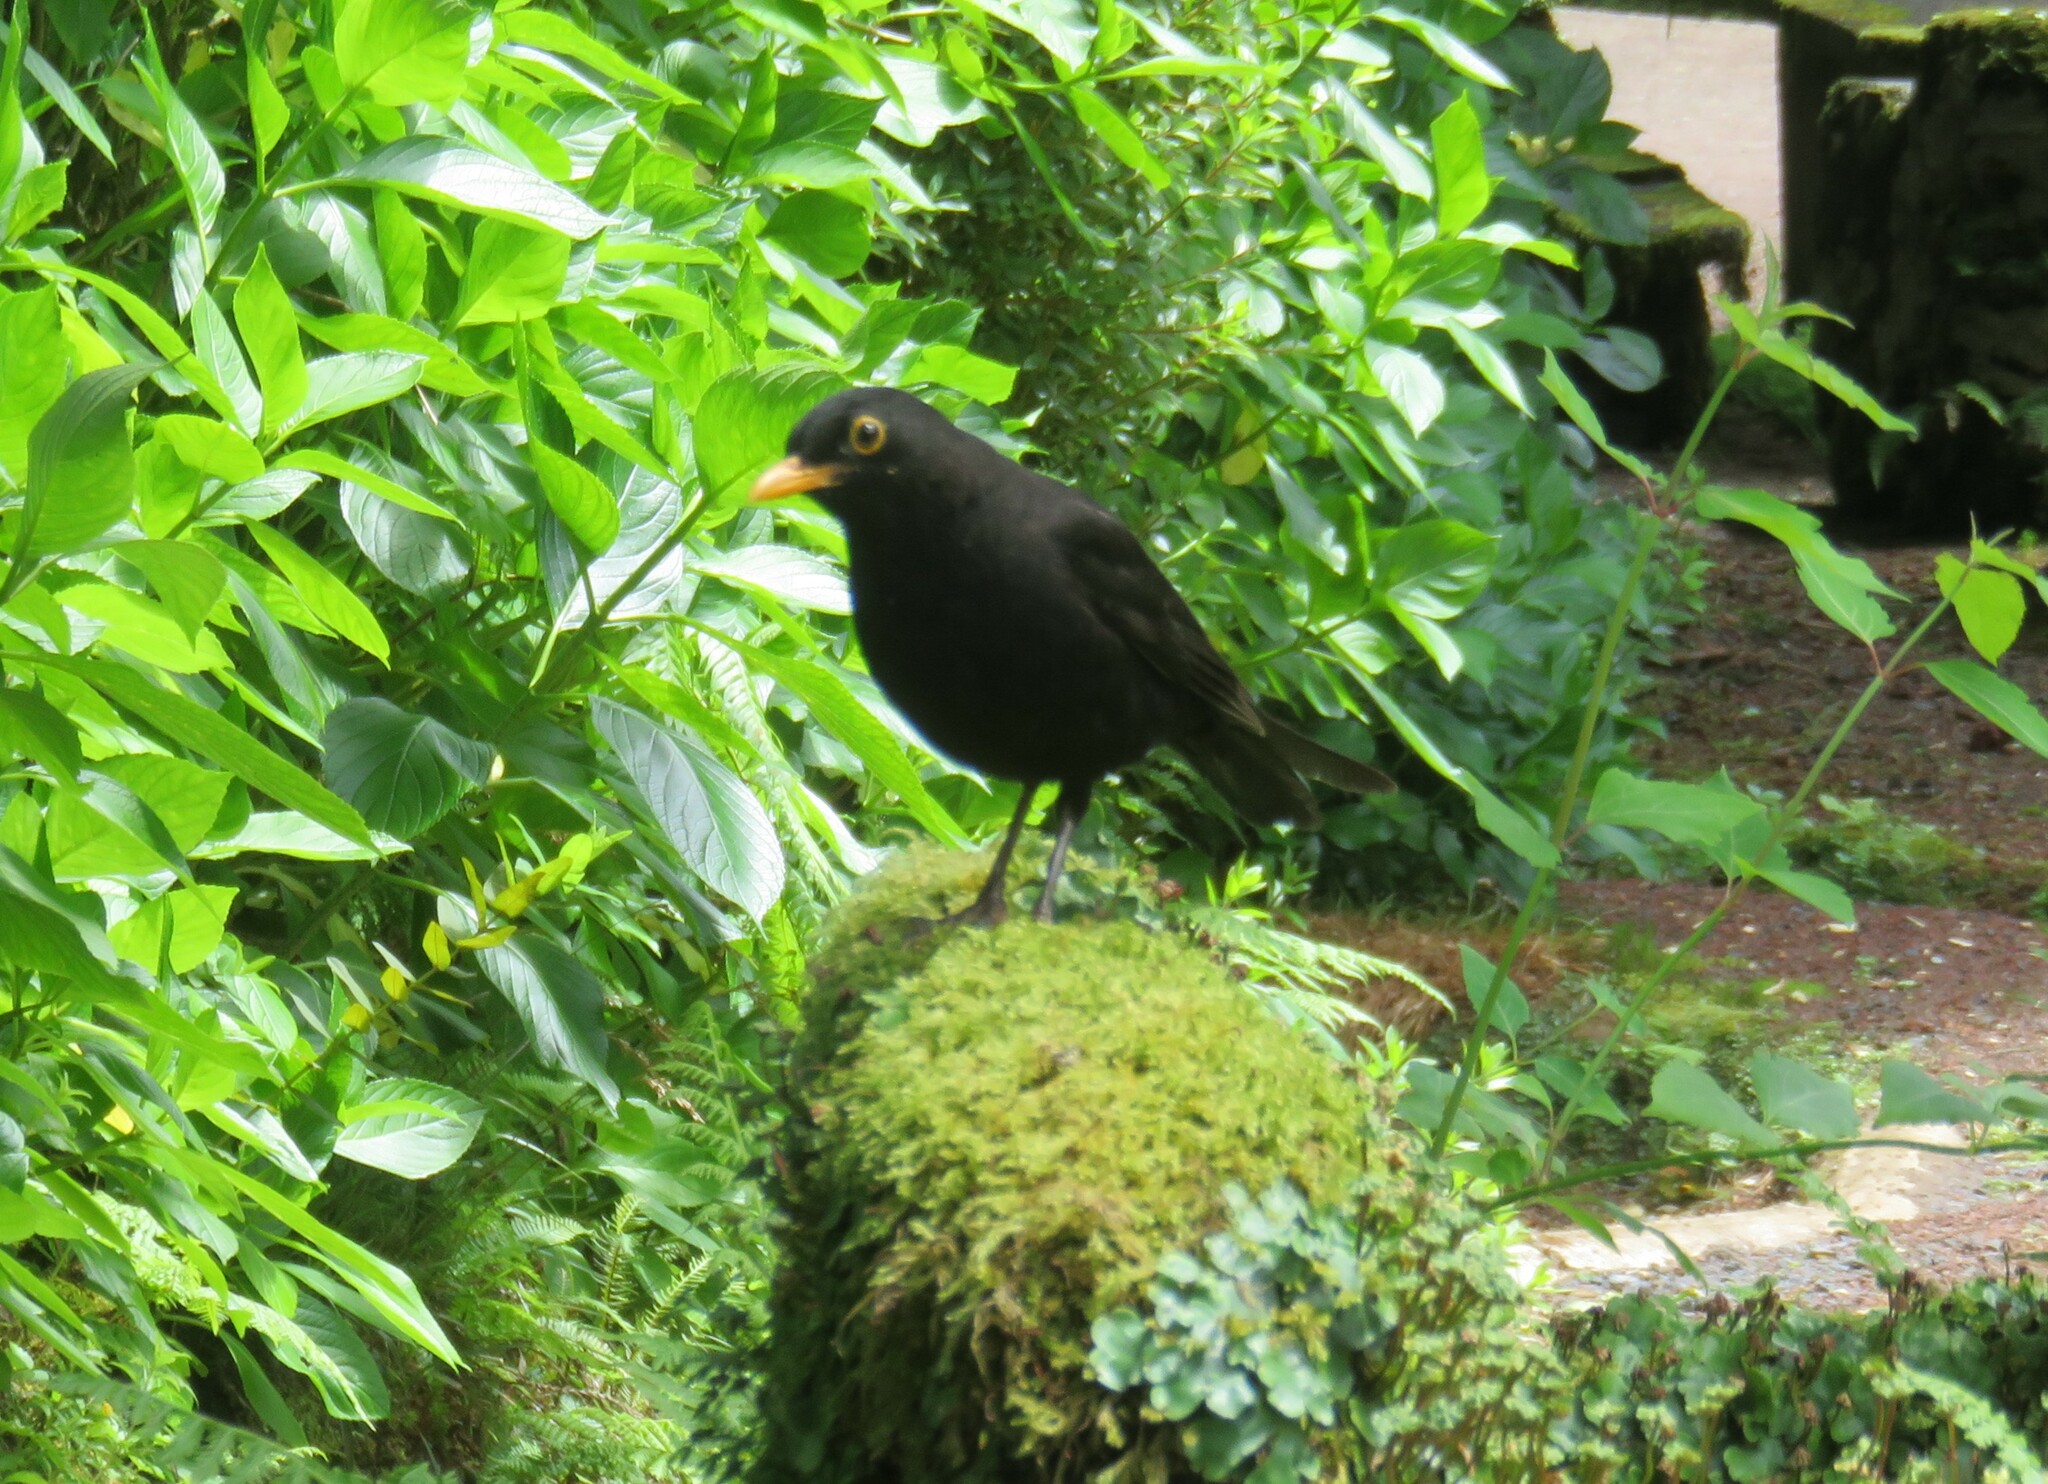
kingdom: Animalia
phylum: Chordata
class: Aves
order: Passeriformes
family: Turdidae
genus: Turdus
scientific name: Turdus merula
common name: Common blackbird
